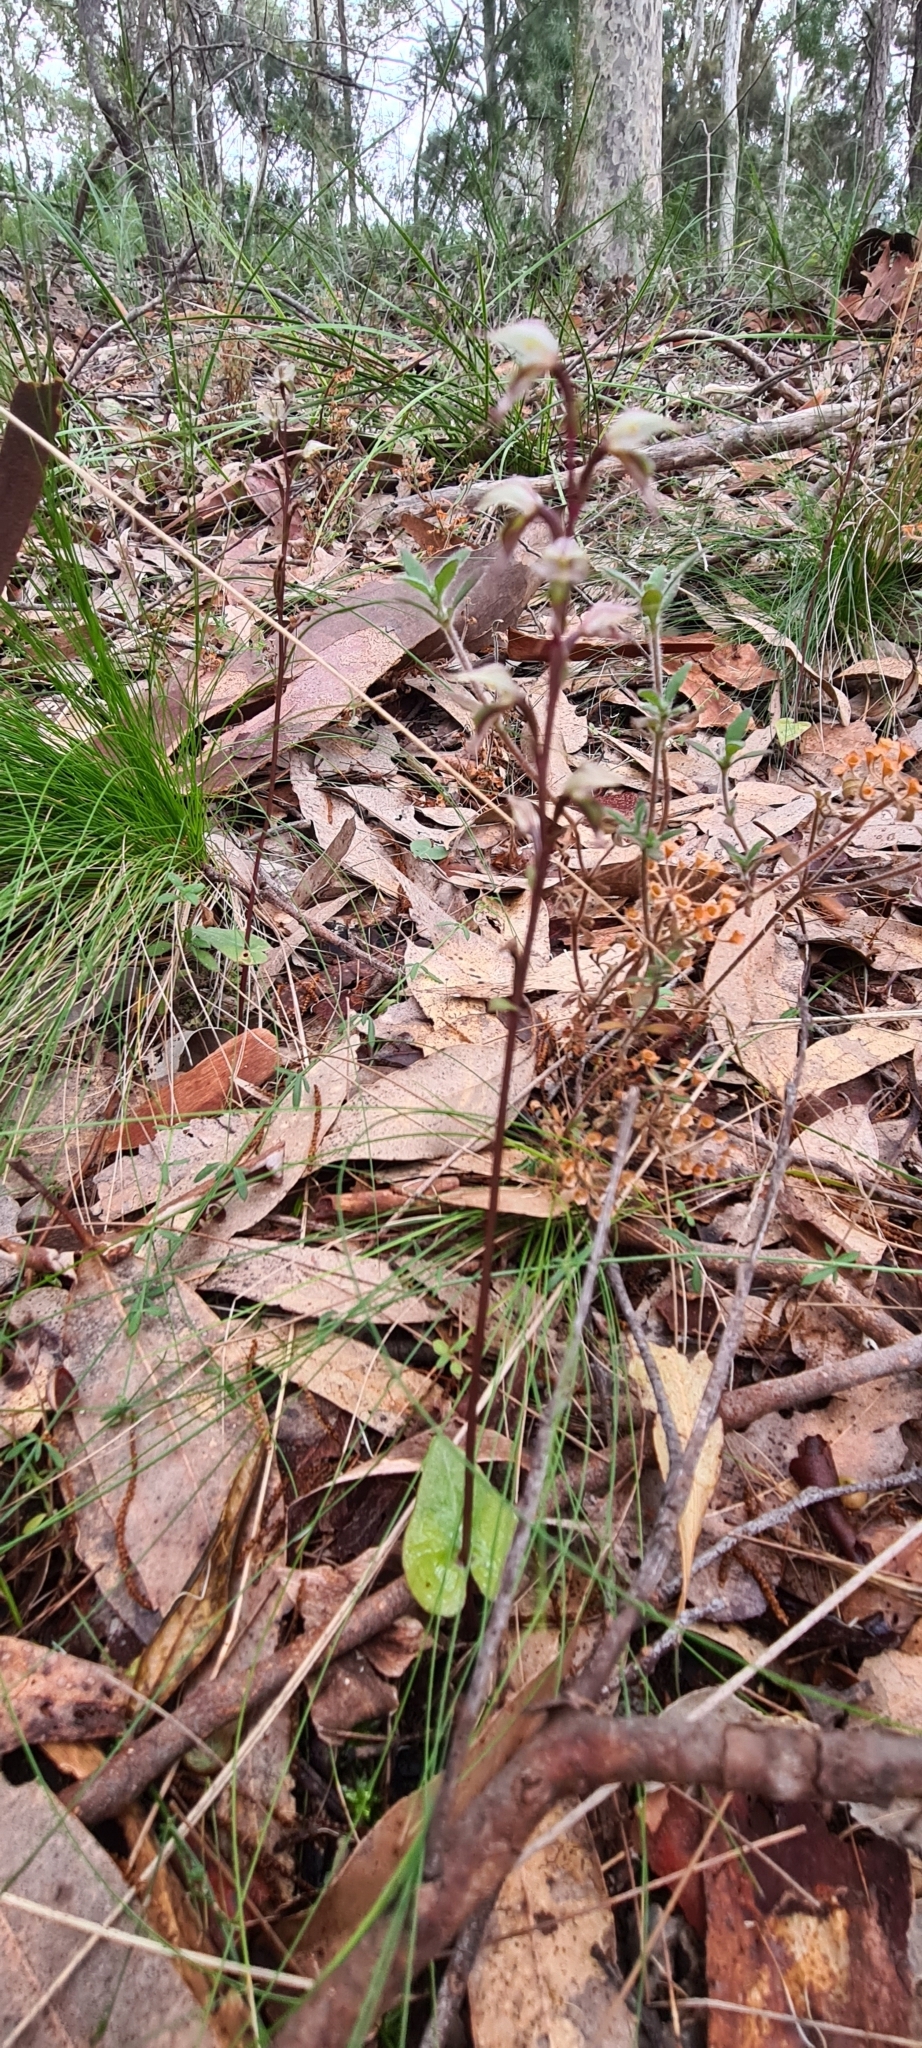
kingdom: Plantae
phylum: Tracheophyta
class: Liliopsida
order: Asparagales
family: Orchidaceae
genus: Acianthus
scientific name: Acianthus fornicatus
